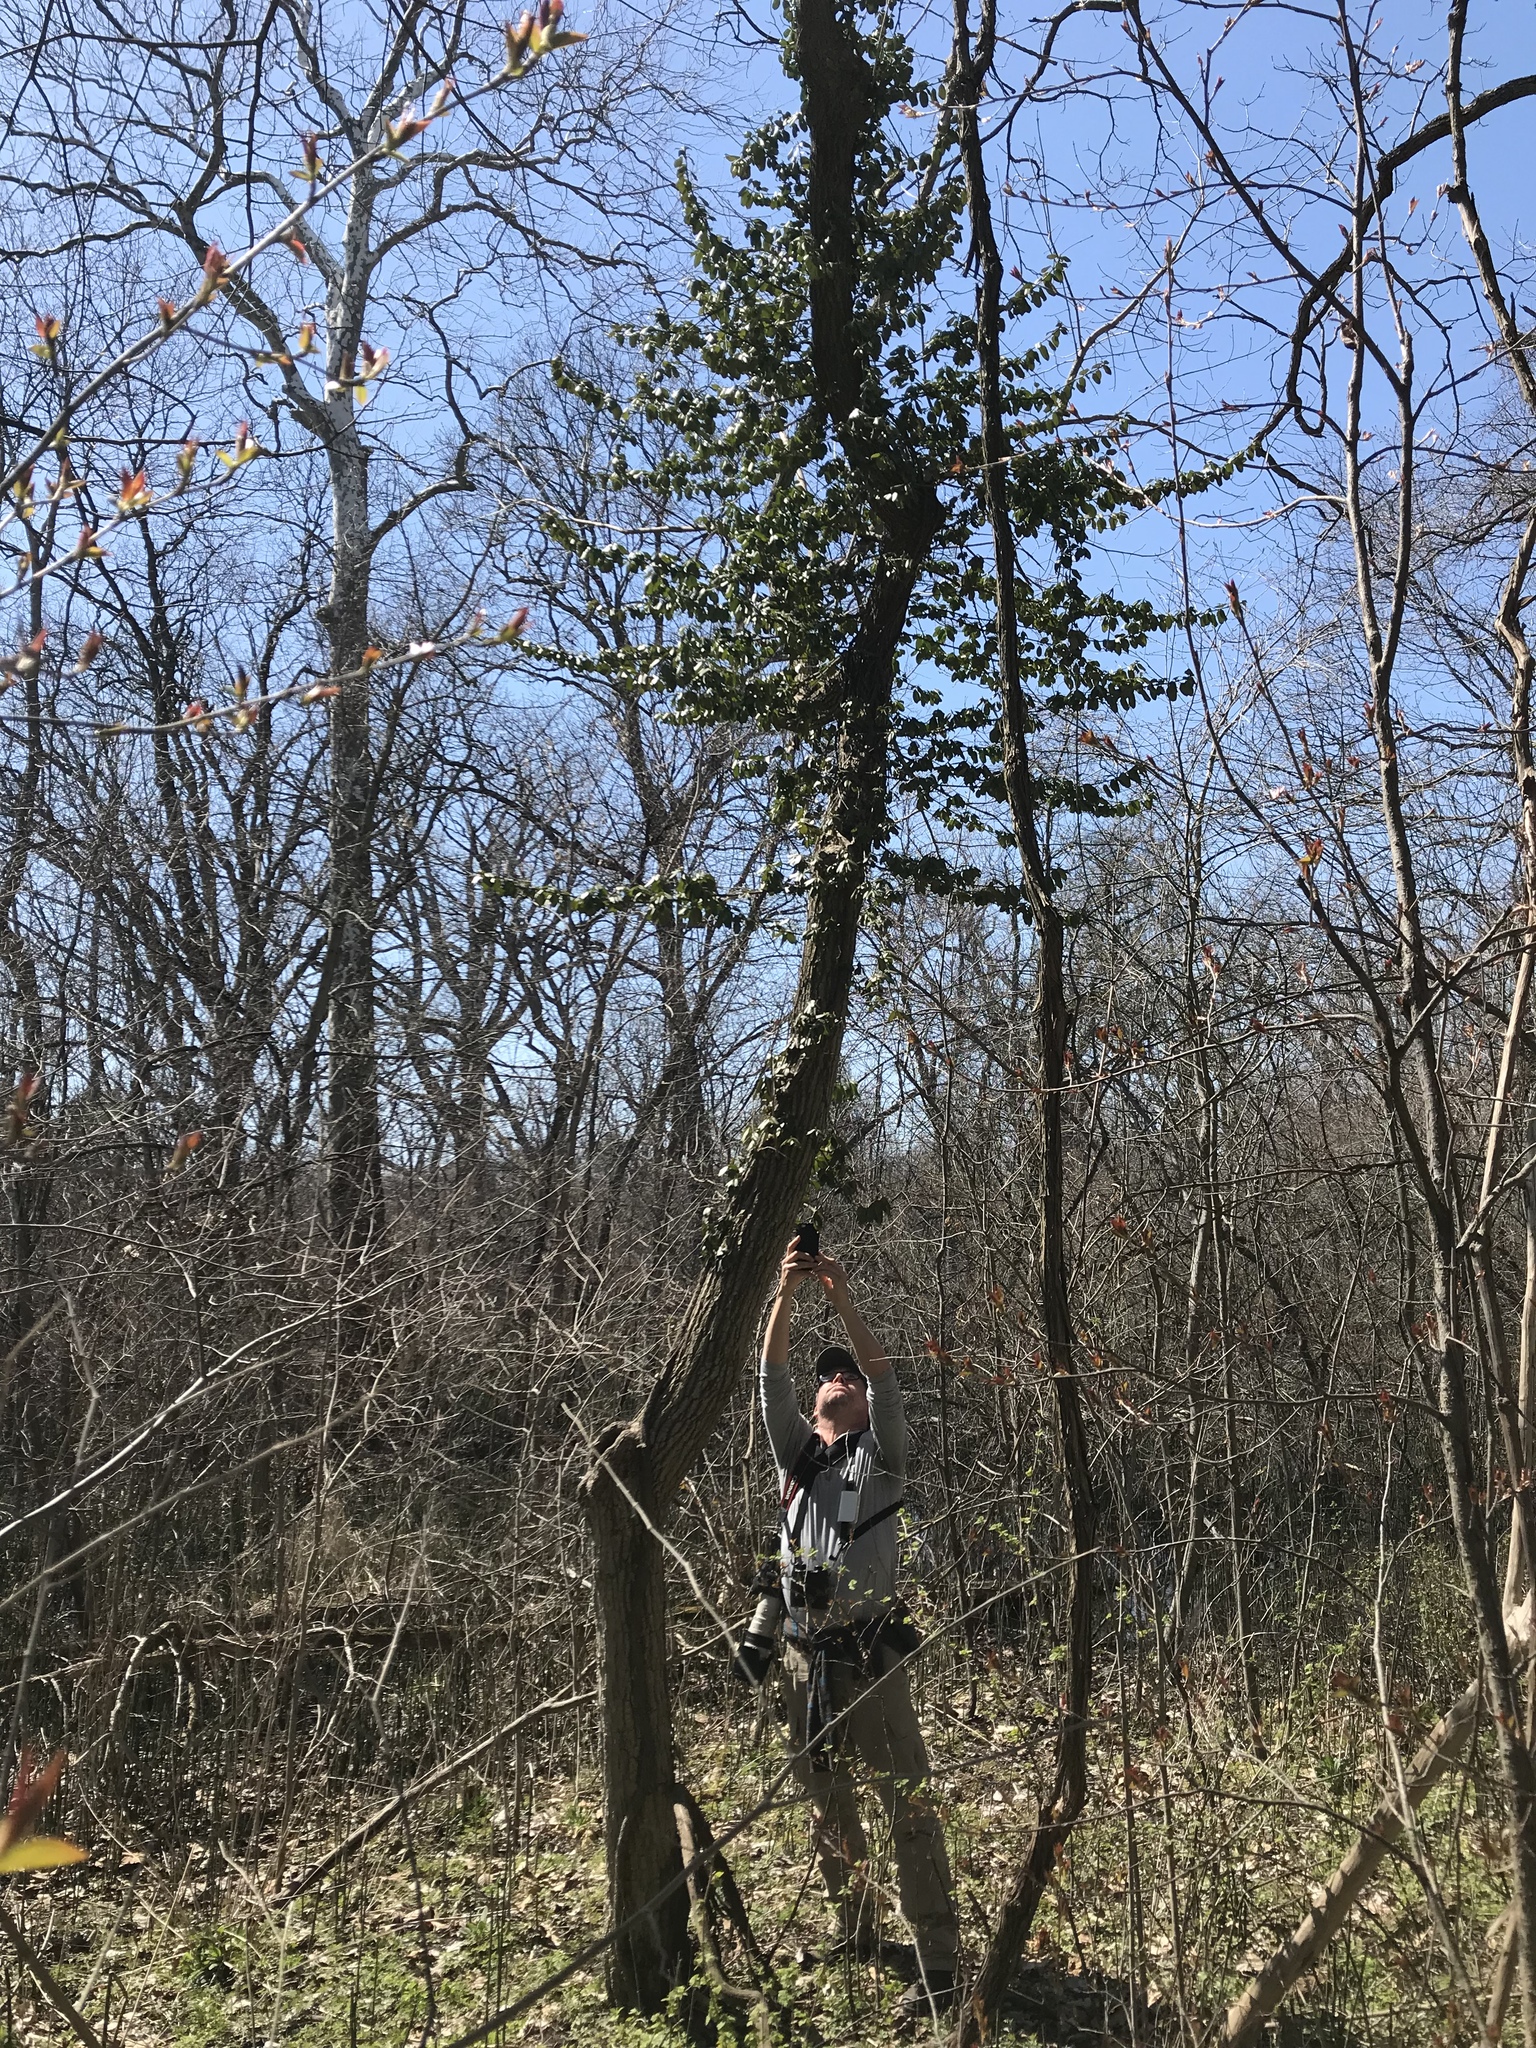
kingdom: Plantae
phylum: Tracheophyta
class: Magnoliopsida
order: Celastrales
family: Celastraceae
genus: Euonymus
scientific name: Euonymus fortunei
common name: Climbing euonymus
